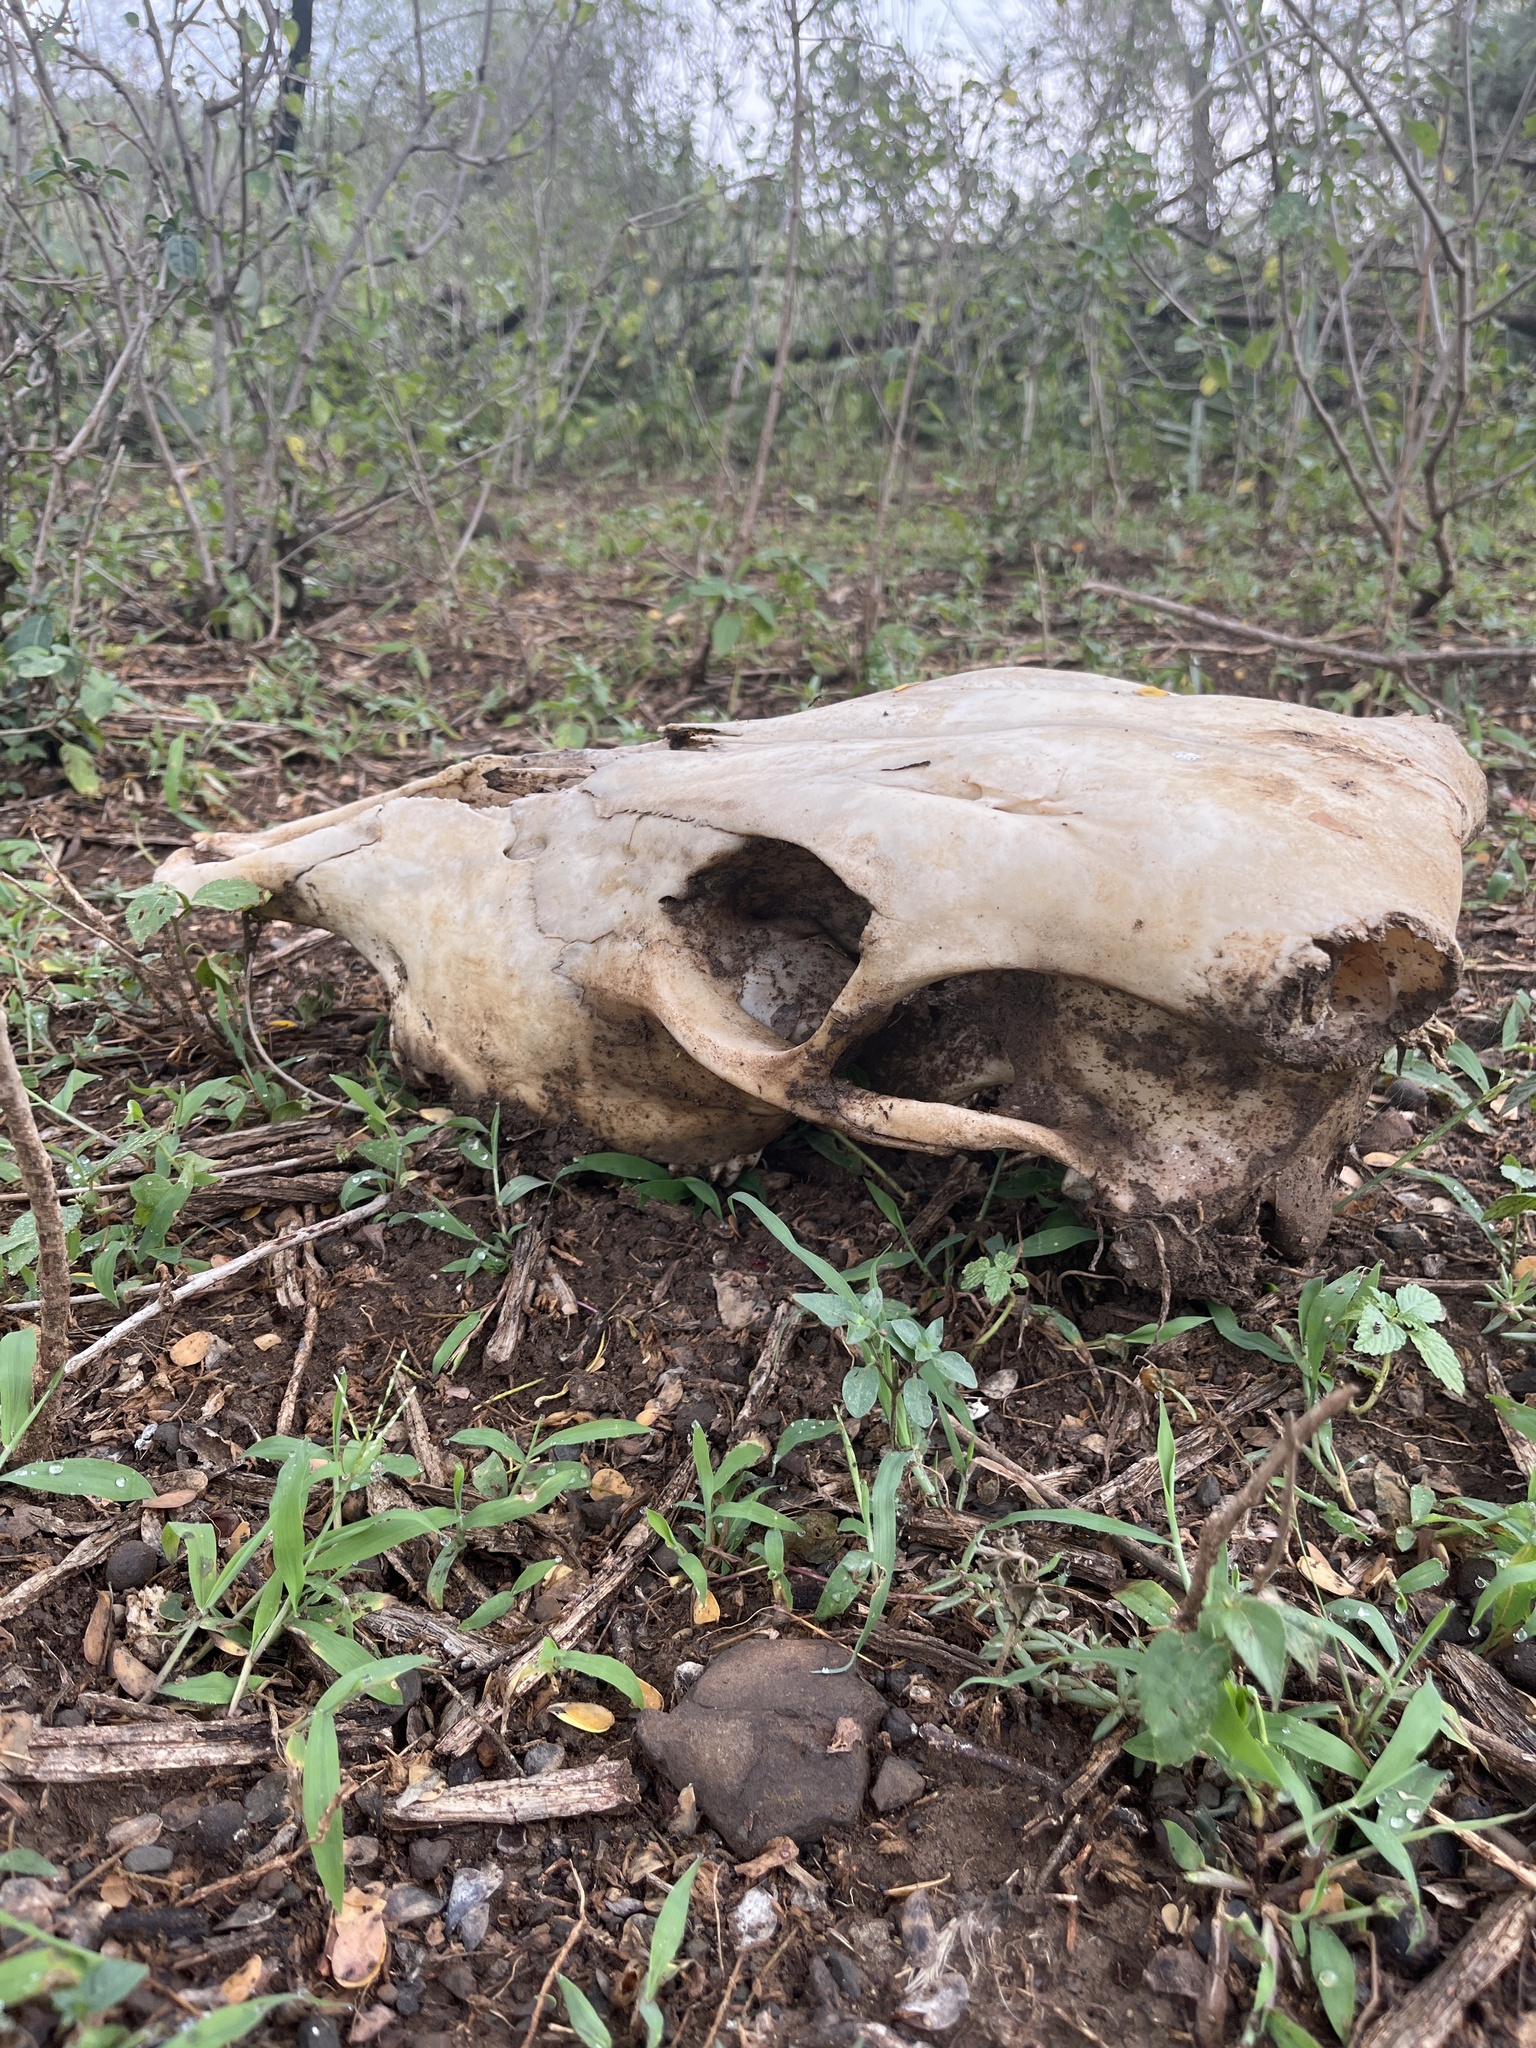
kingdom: Animalia
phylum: Chordata
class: Mammalia
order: Artiodactyla
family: Bovidae
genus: Bos
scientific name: Bos taurus
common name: Domesticated cattle
